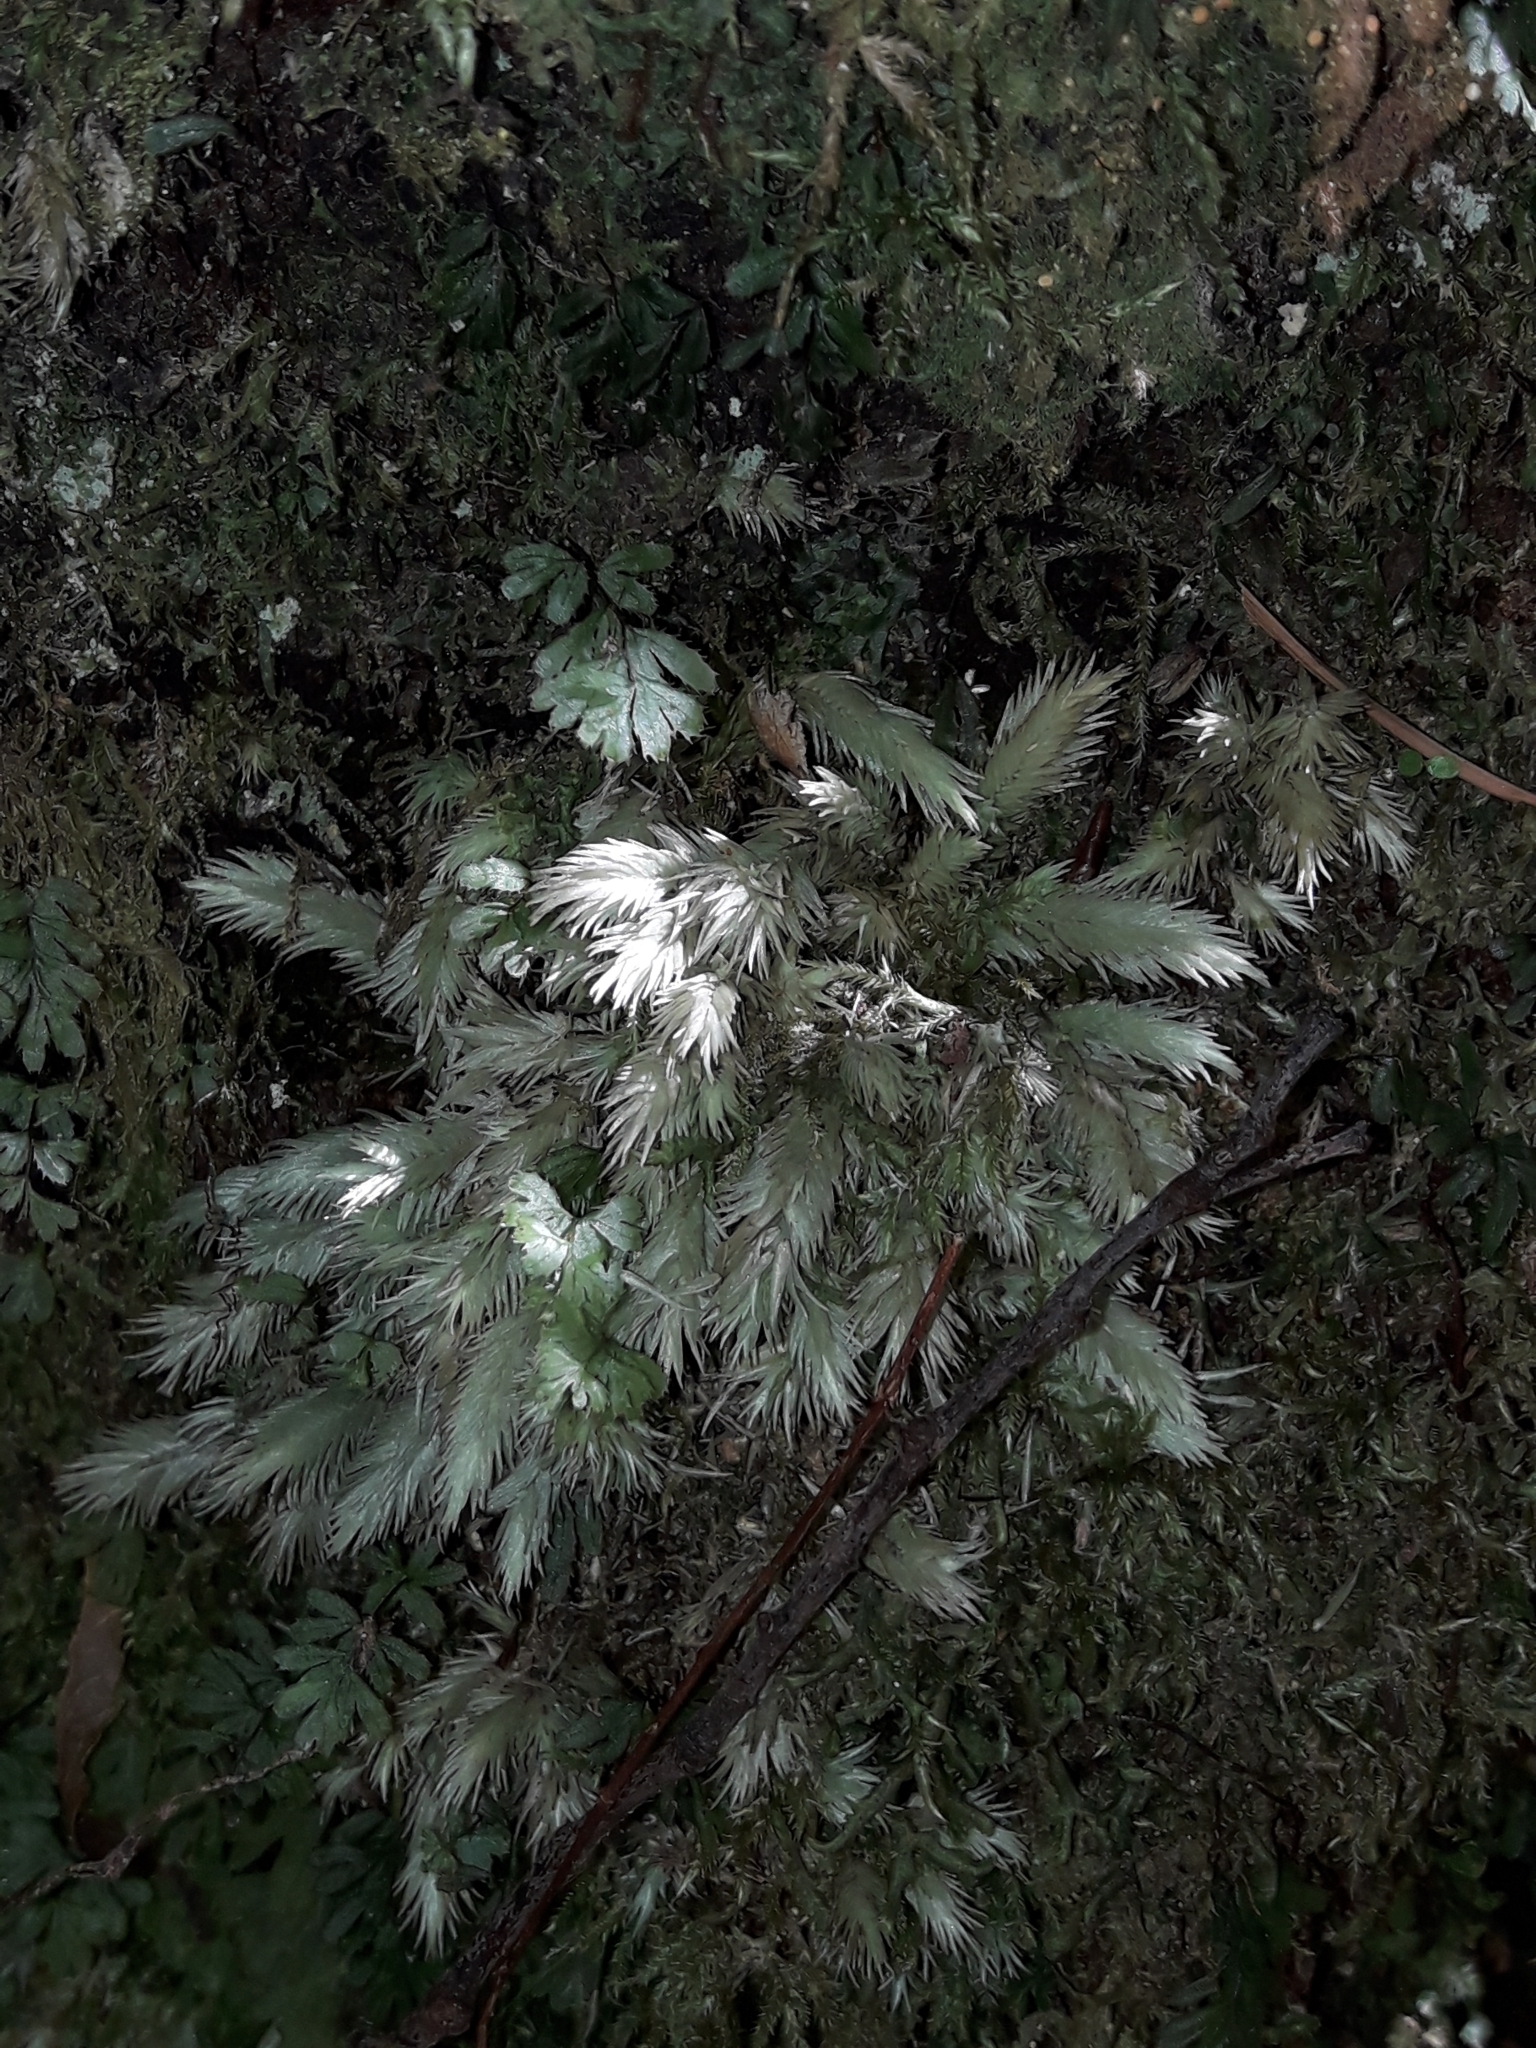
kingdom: Plantae
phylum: Bryophyta
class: Bryopsida
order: Dicranales
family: Leucobryaceae
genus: Leucobryum
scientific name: Leucobryum javense
